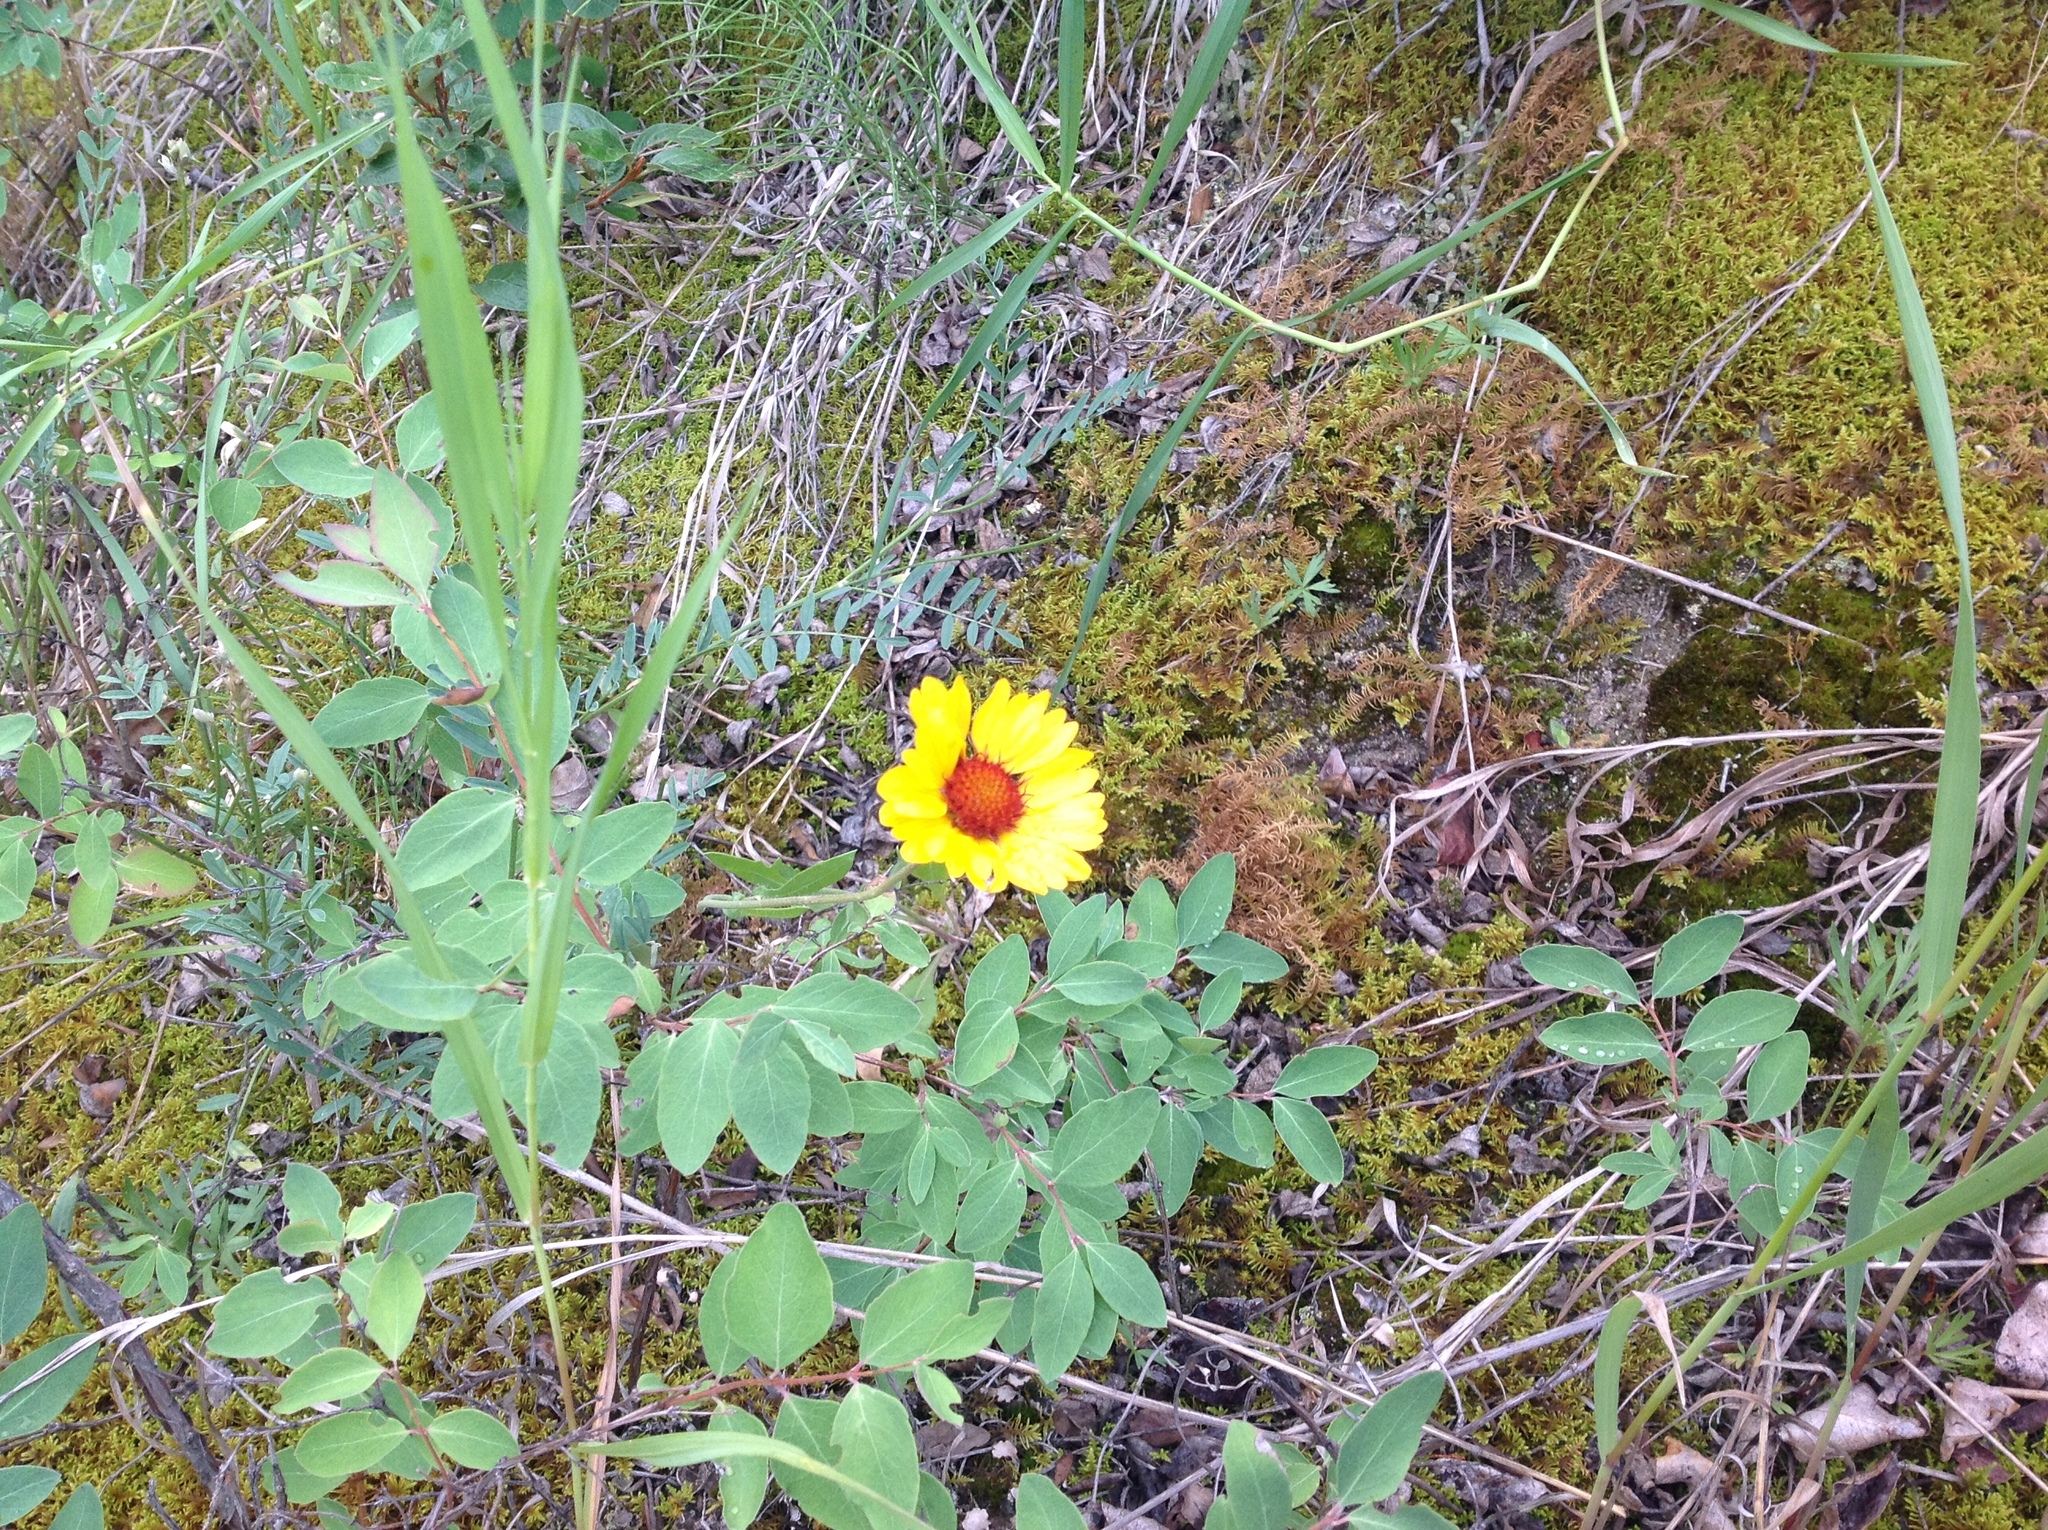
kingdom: Plantae
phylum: Tracheophyta
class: Magnoliopsida
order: Asterales
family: Asteraceae
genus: Gaillardia
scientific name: Gaillardia aristata
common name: Blanket-flower
